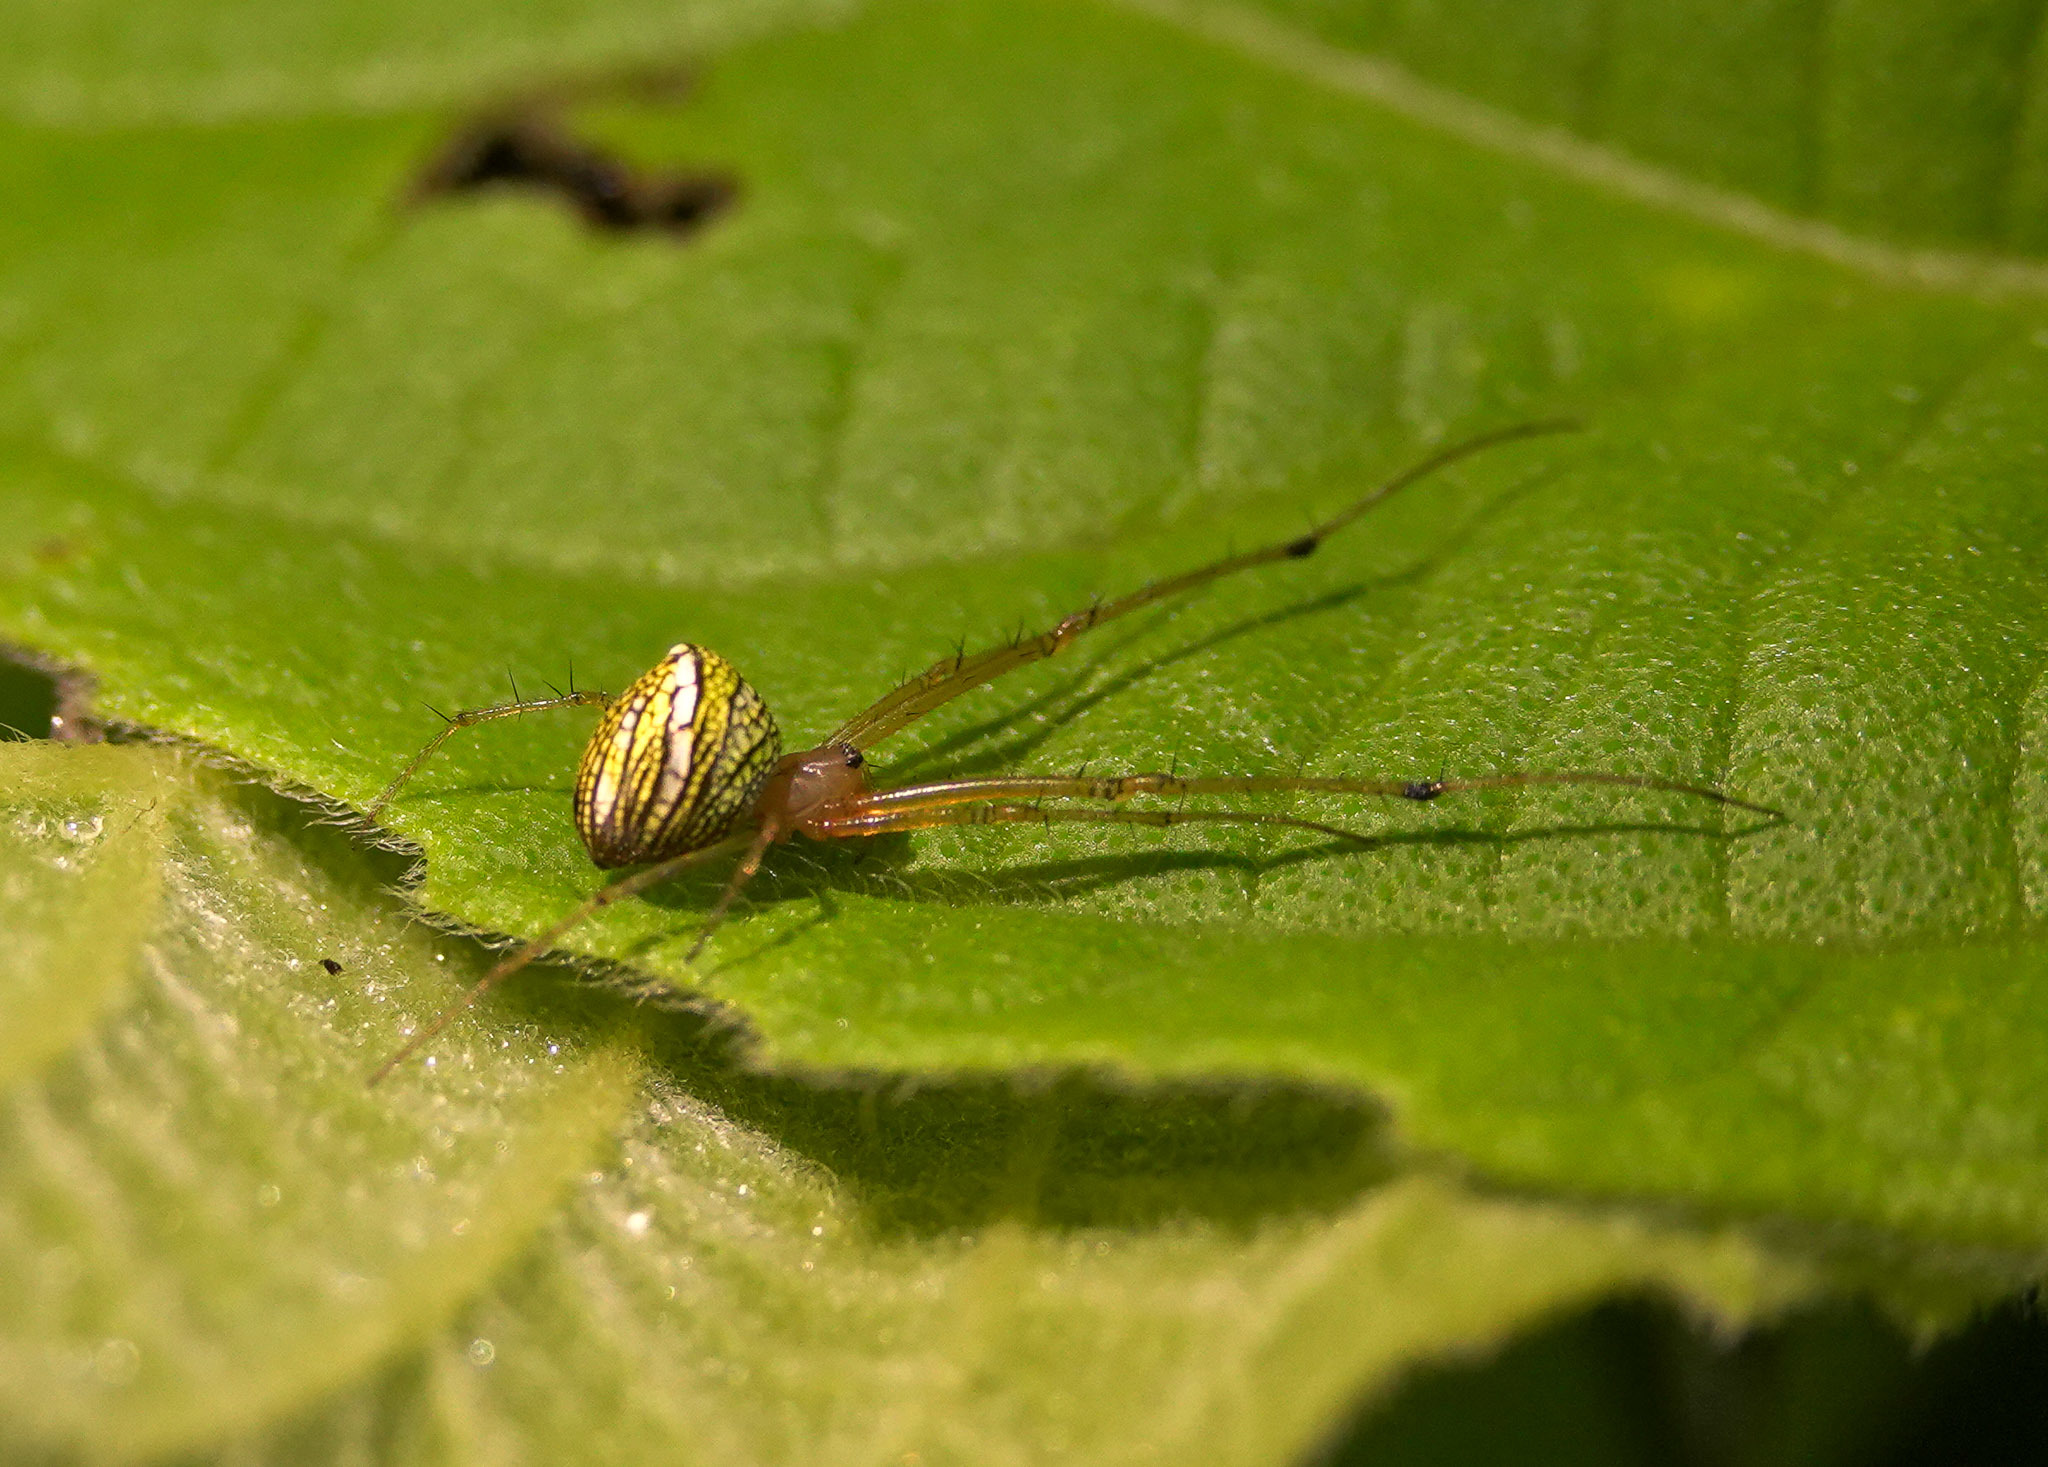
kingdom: Animalia
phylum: Arthropoda
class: Arachnida
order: Araneae
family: Tetragnathidae
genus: Tylorida
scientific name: Tylorida striata
